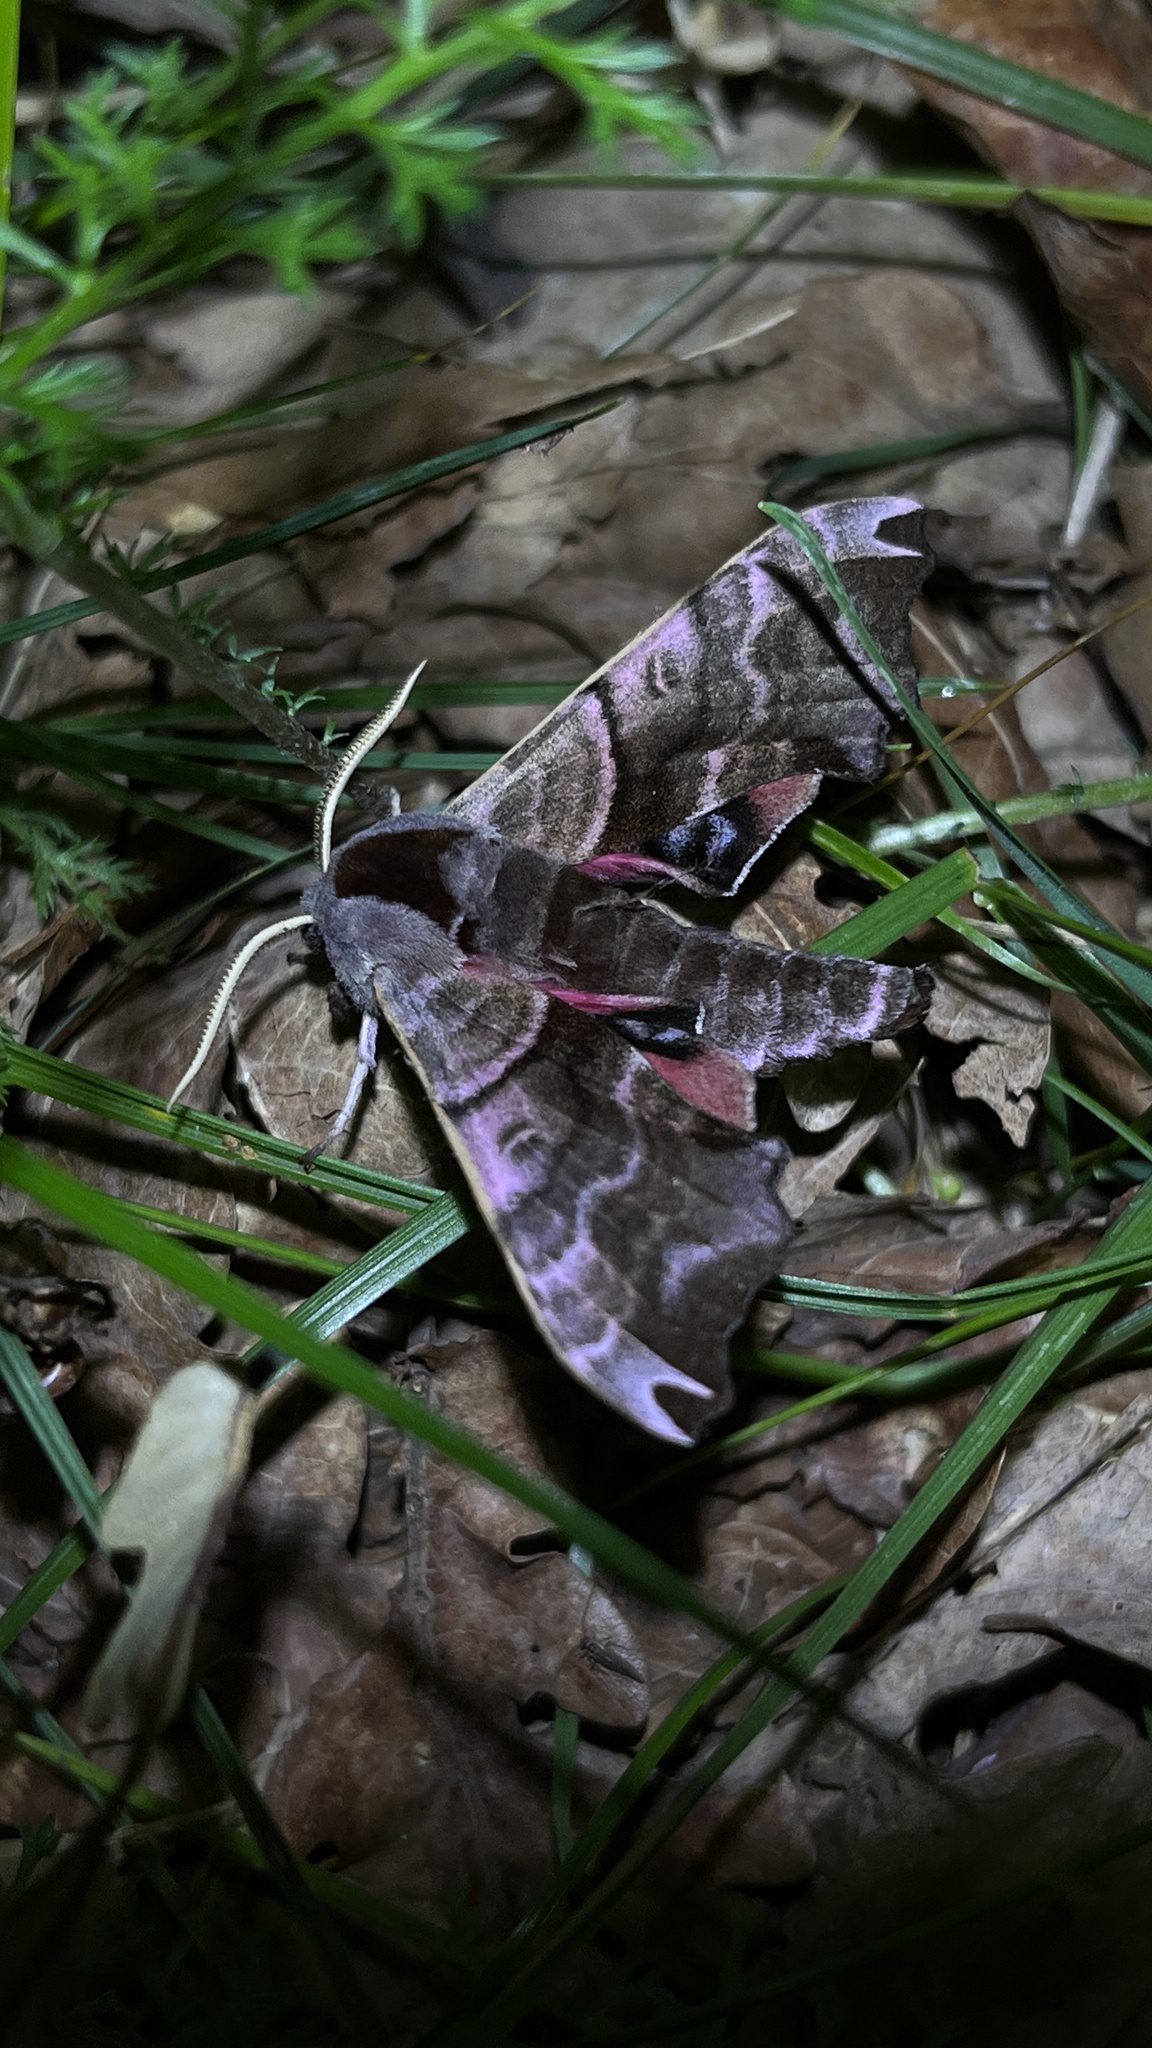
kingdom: Animalia
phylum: Arthropoda
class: Insecta
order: Lepidoptera
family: Sphingidae
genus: Smerinthus
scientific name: Smerinthus caecus
